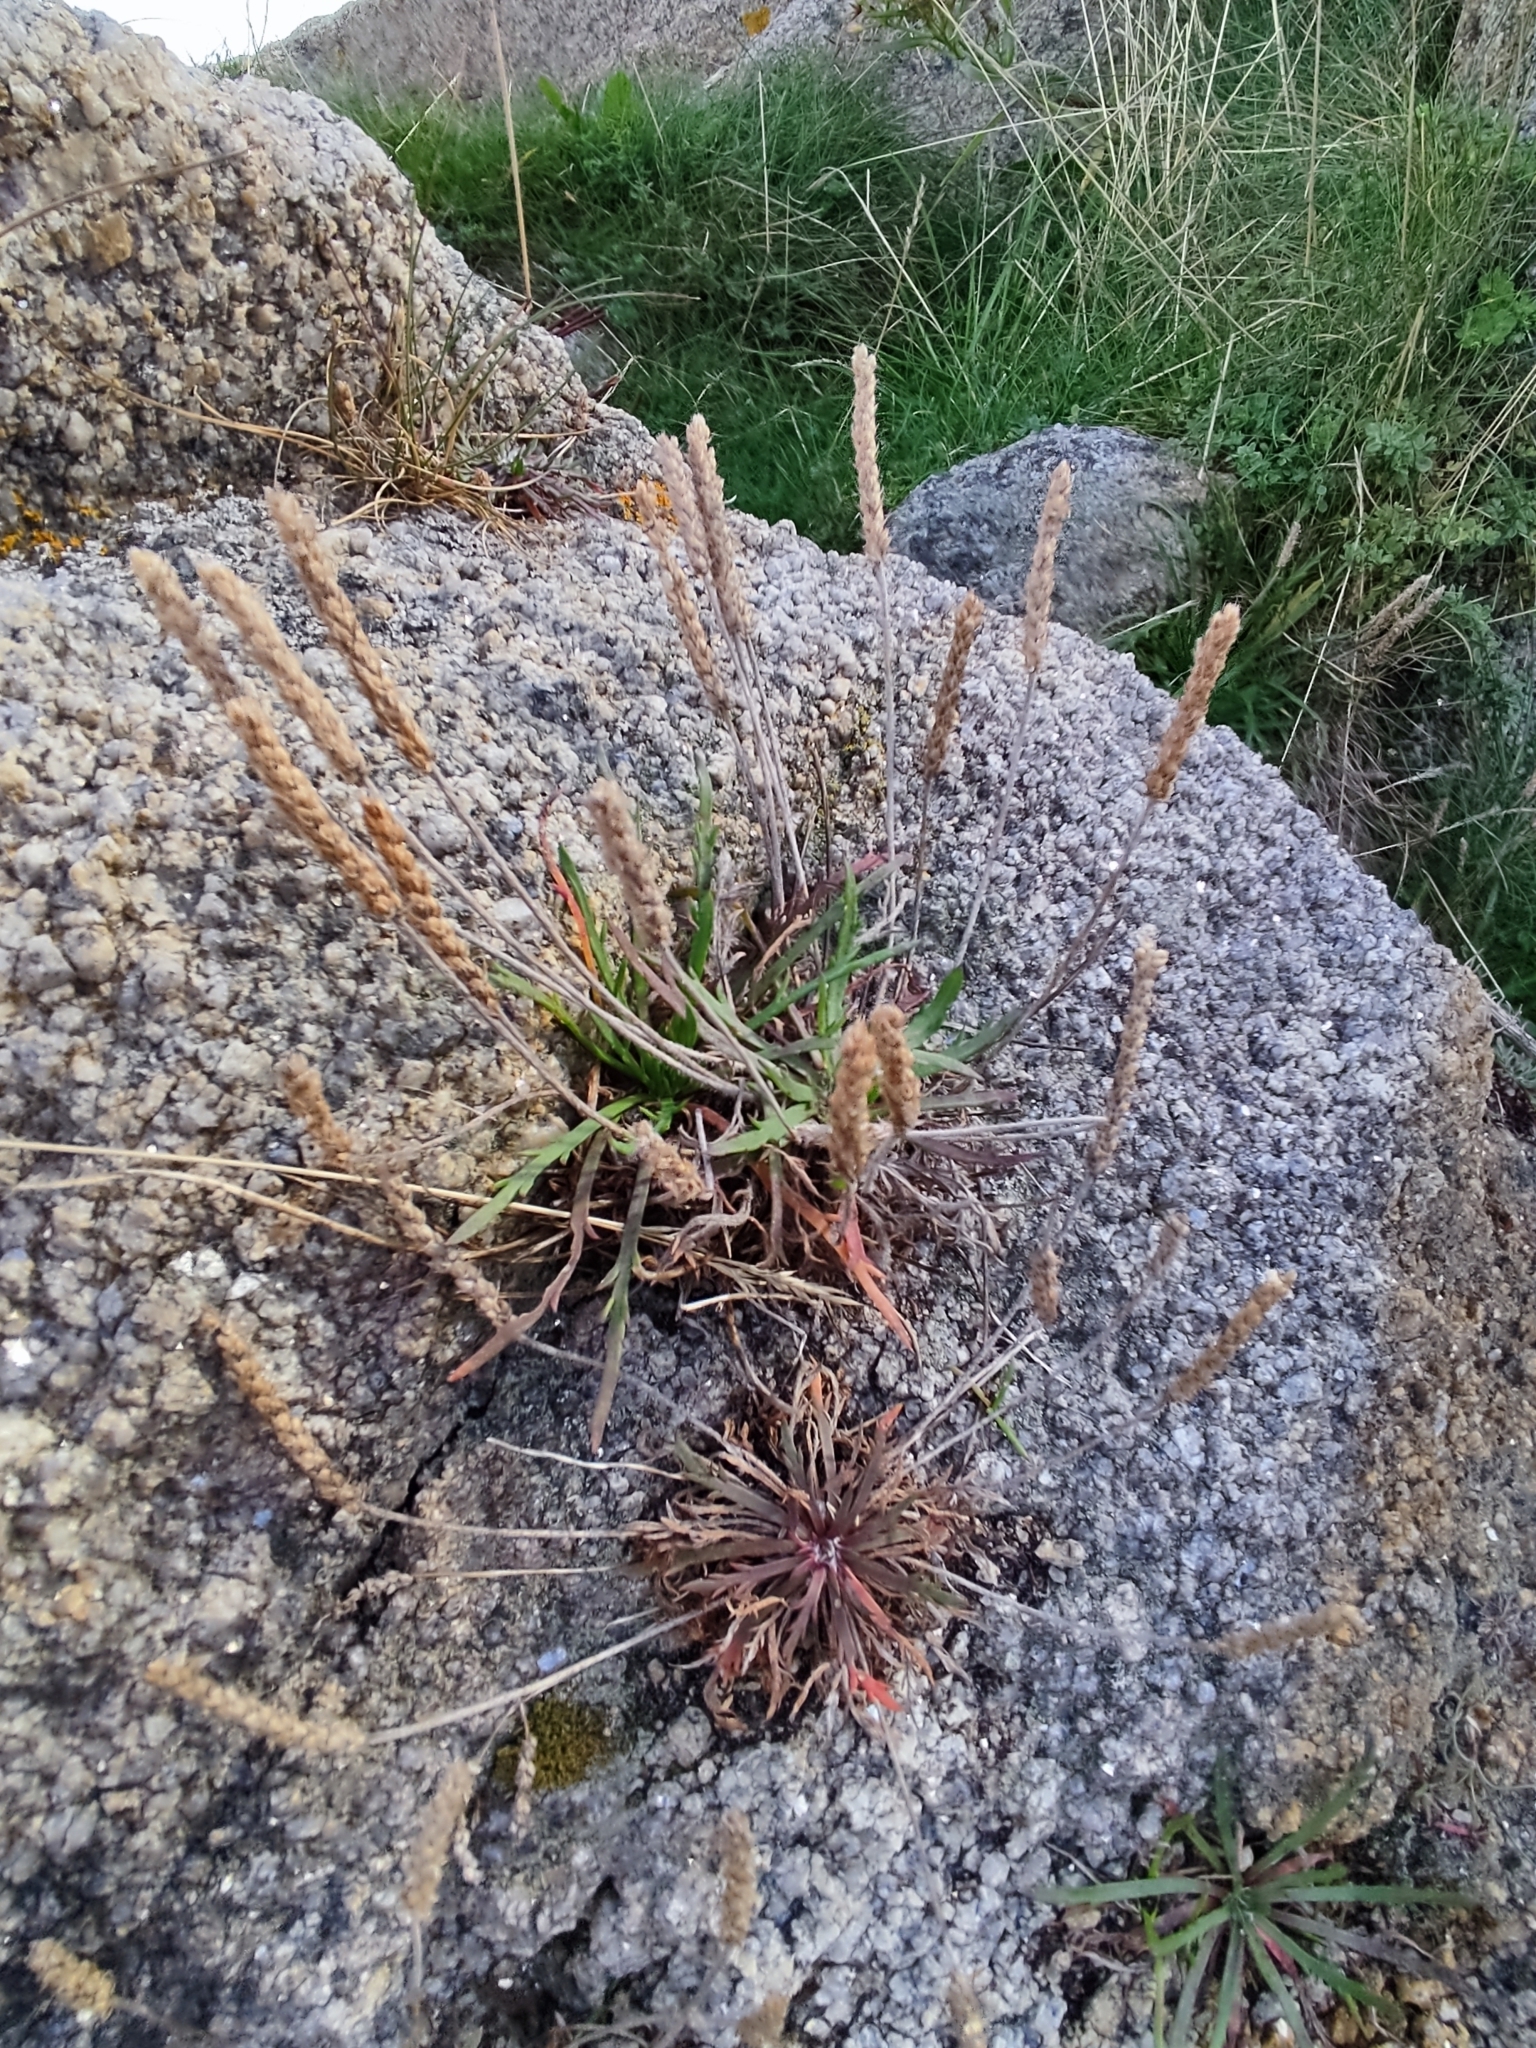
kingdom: Plantae
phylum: Tracheophyta
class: Magnoliopsida
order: Lamiales
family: Plantaginaceae
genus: Plantago
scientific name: Plantago coronopus
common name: Buck's-horn plantain
